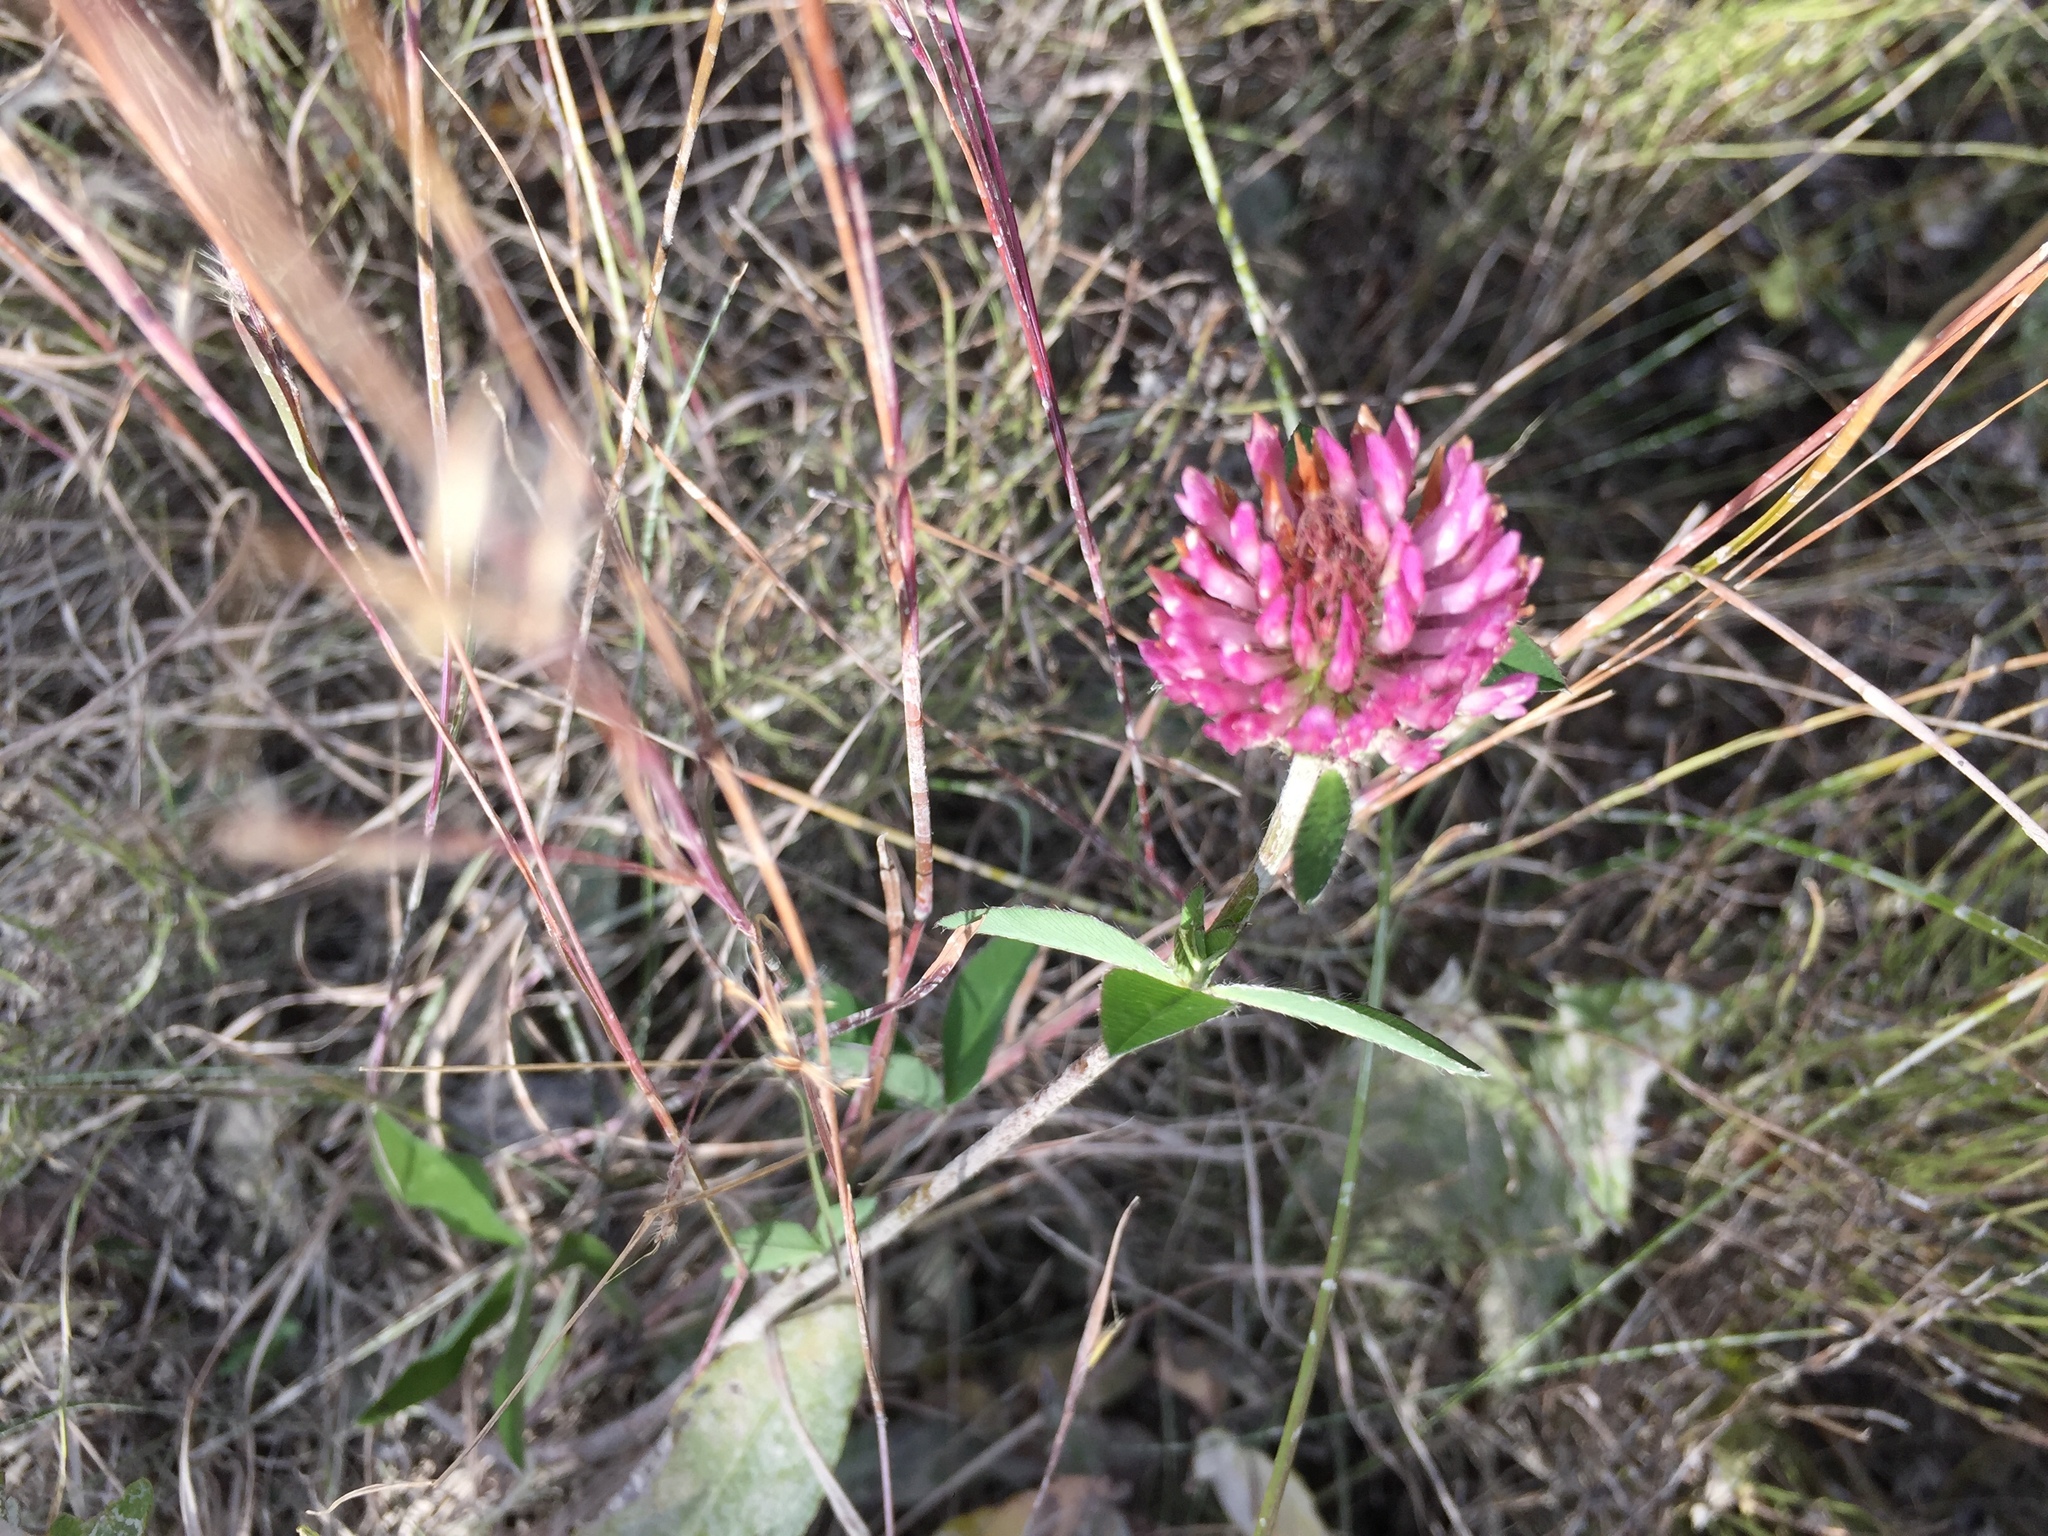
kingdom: Plantae
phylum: Tracheophyta
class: Magnoliopsida
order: Fabales
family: Fabaceae
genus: Trifolium
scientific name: Trifolium pratense
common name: Red clover
